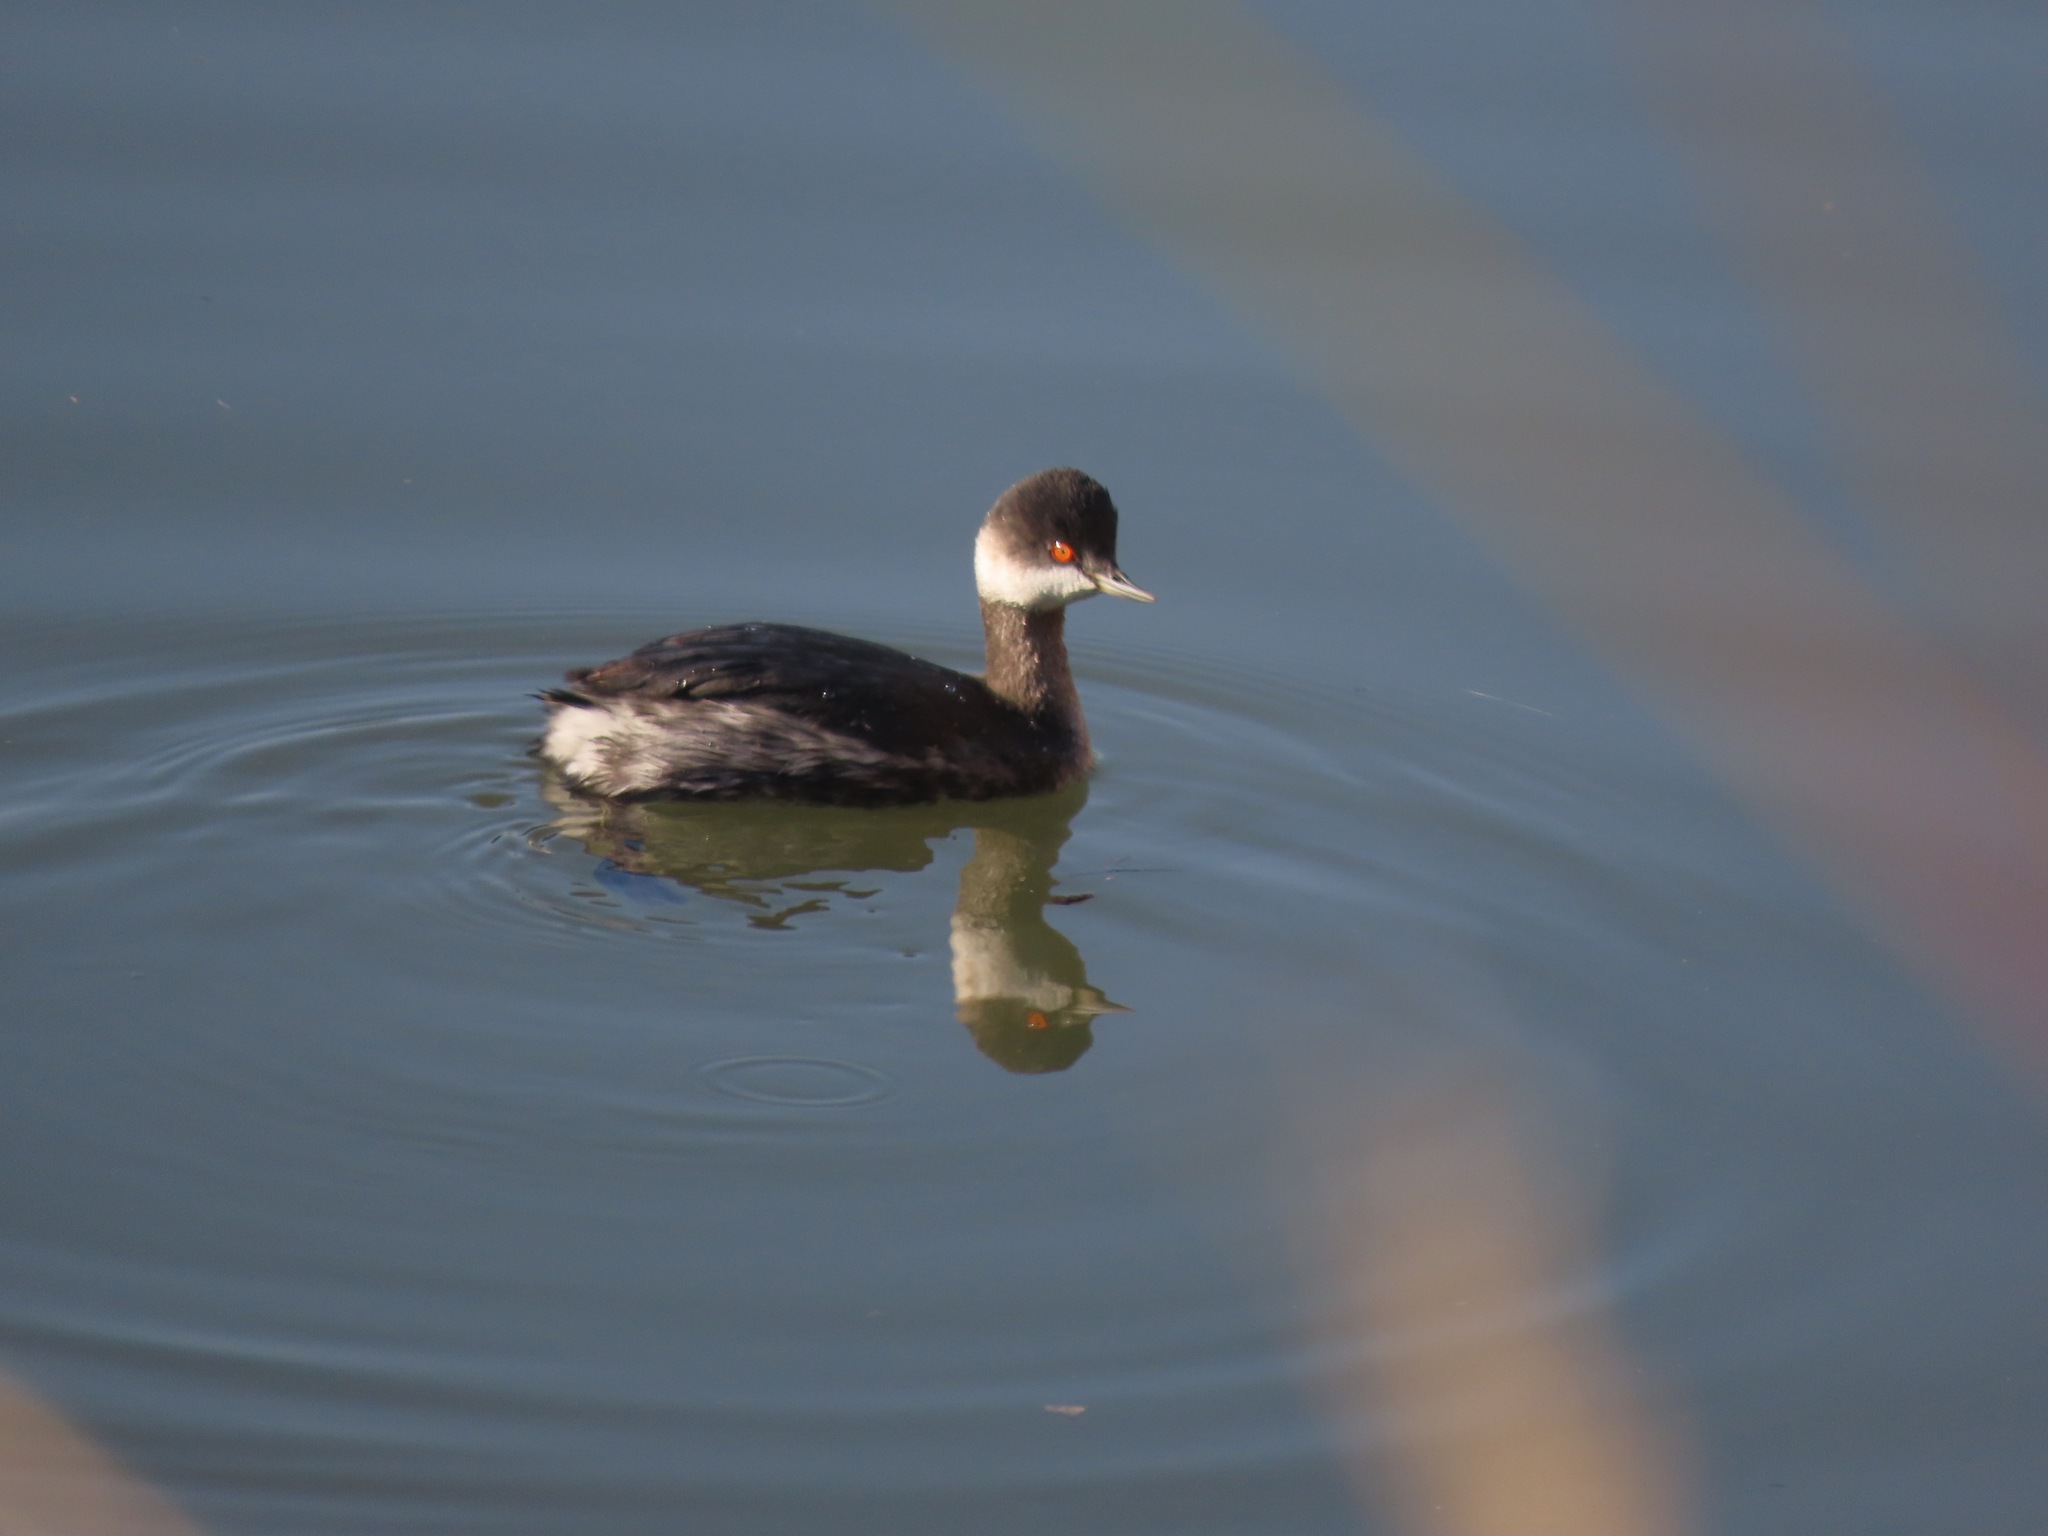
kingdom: Animalia
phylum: Chordata
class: Aves
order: Podicipediformes
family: Podicipedidae
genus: Podiceps
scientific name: Podiceps nigricollis
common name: Black-necked grebe
